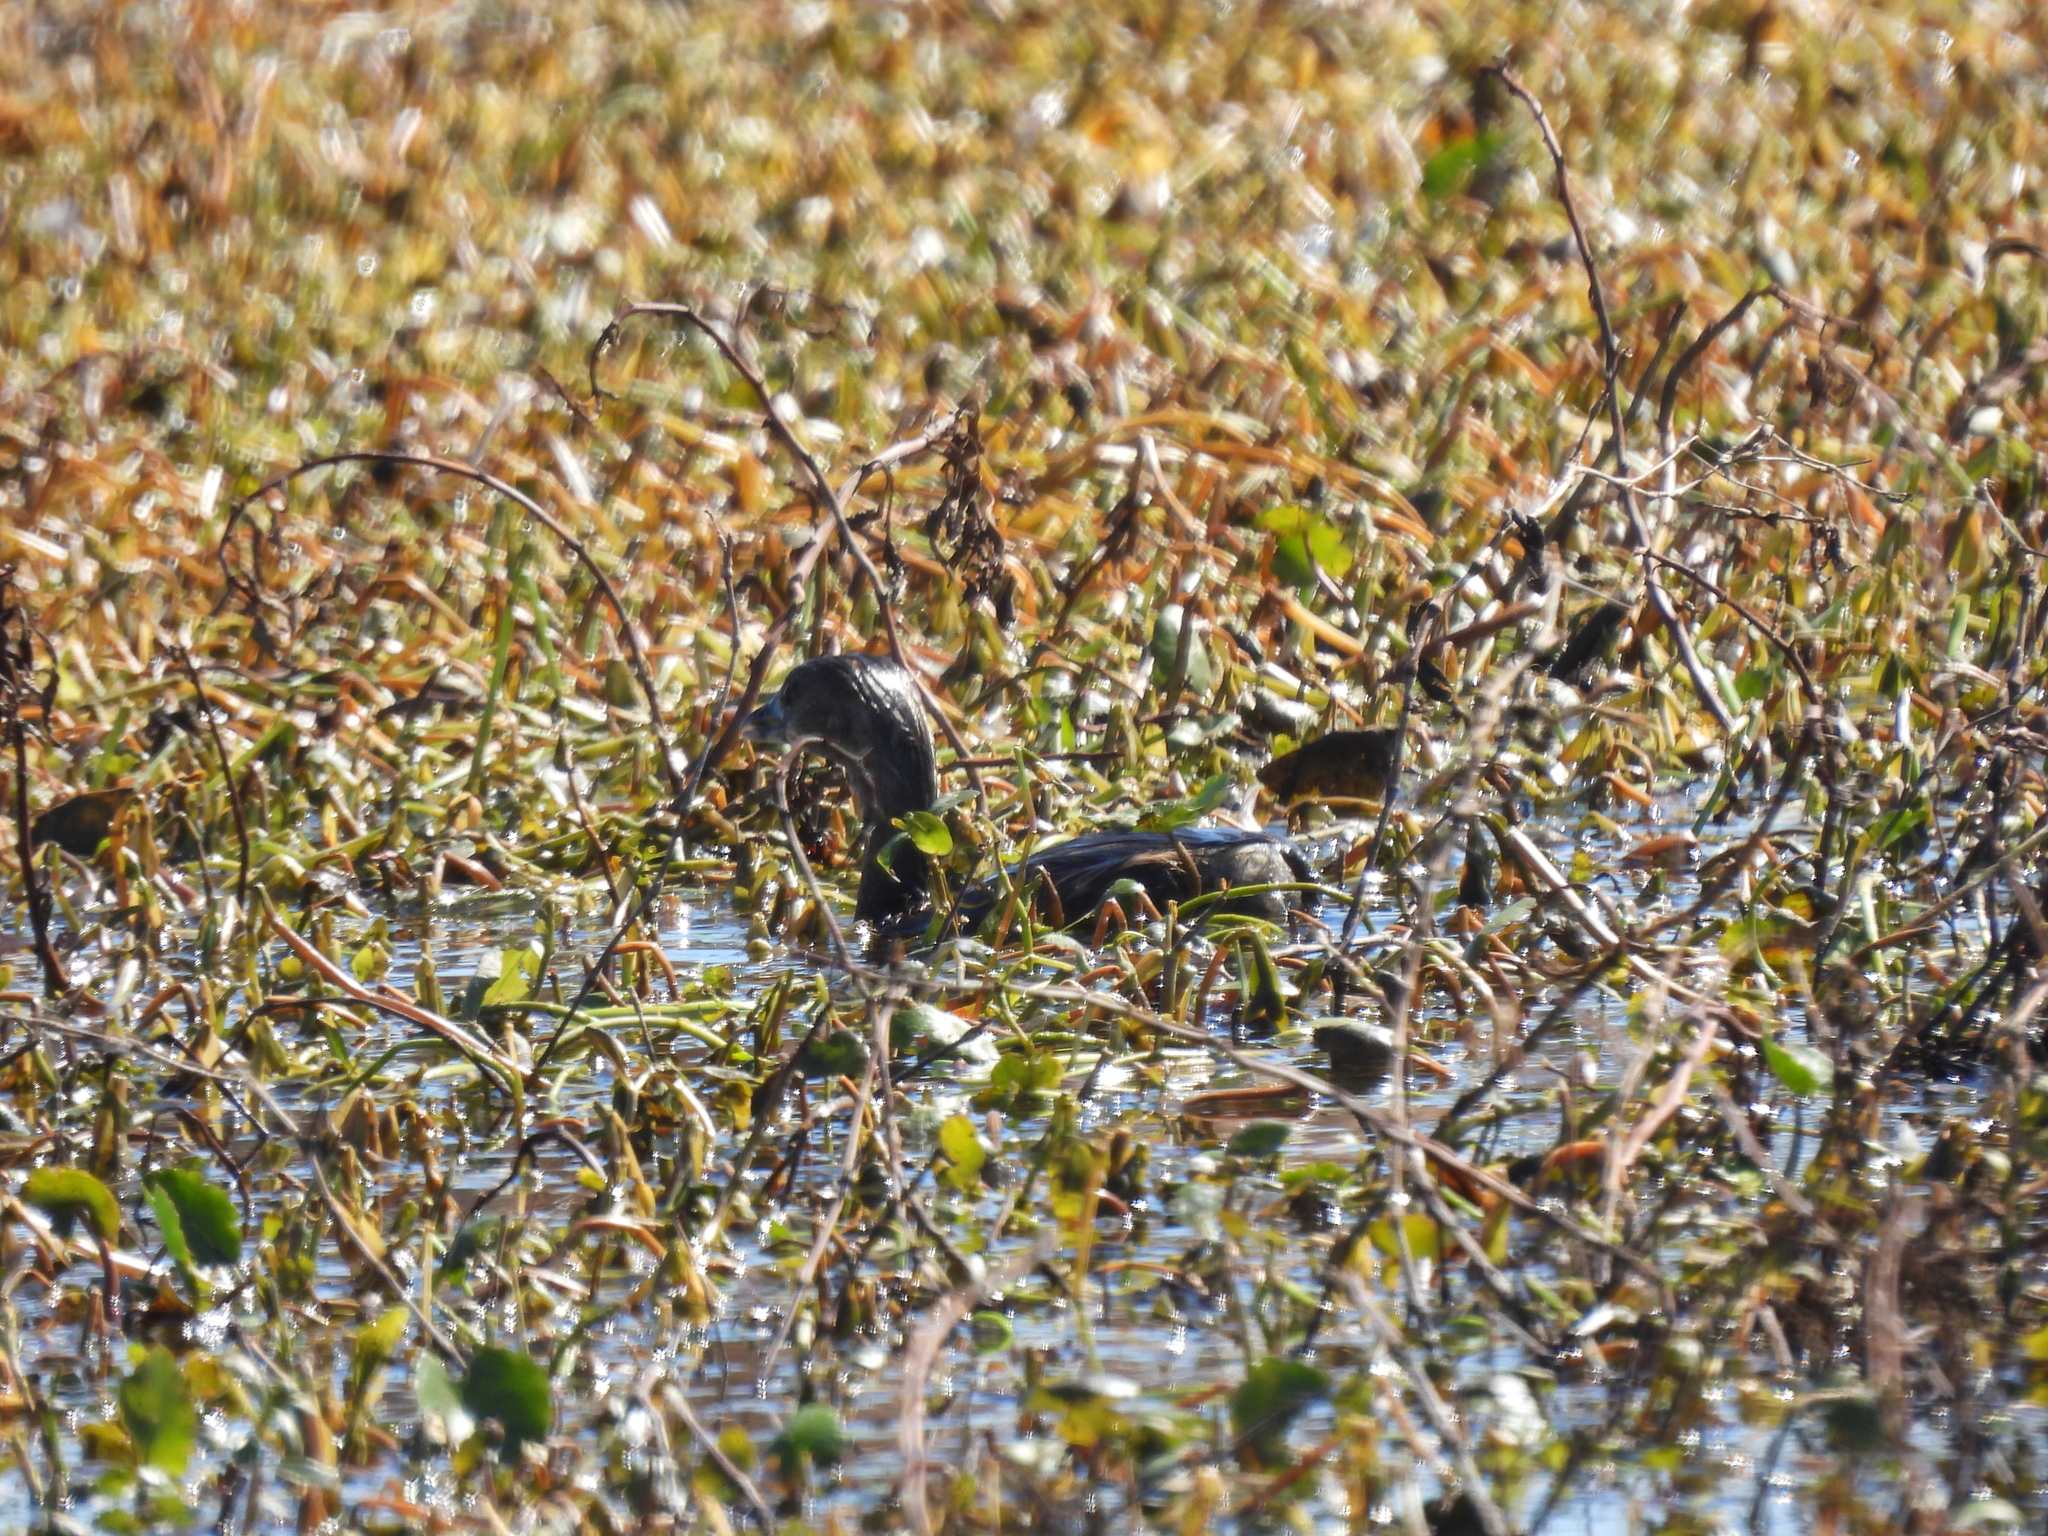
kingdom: Animalia
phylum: Chordata
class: Aves
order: Podicipediformes
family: Podicipedidae
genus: Podilymbus
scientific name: Podilymbus podiceps
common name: Pied-billed grebe
